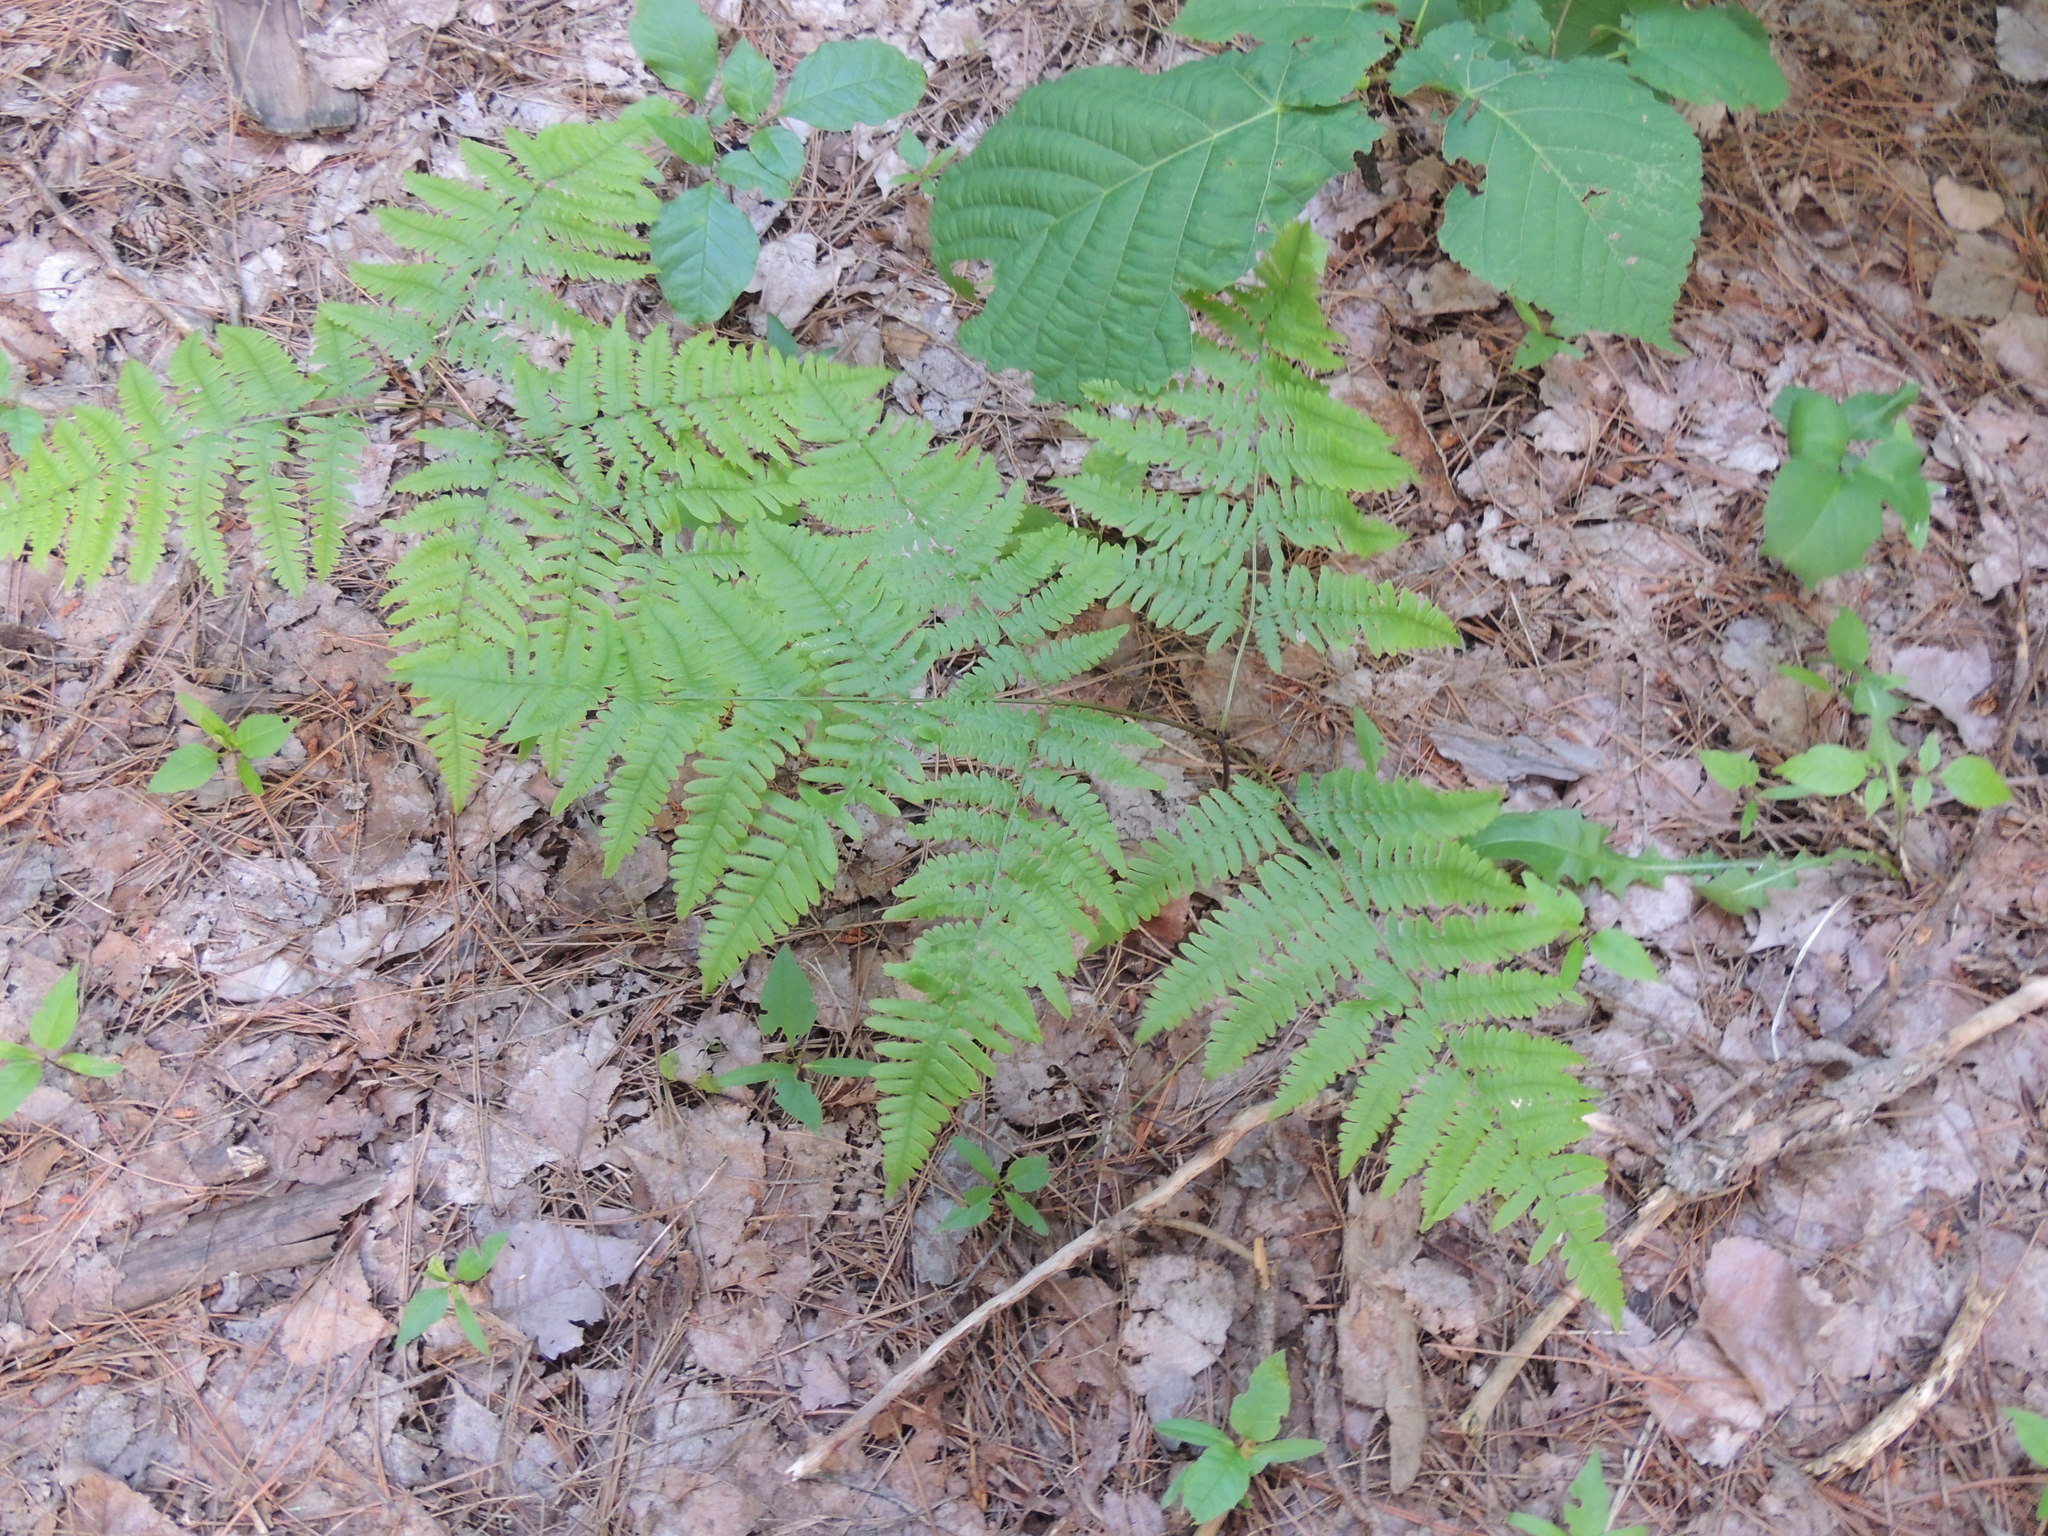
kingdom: Plantae
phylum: Tracheophyta
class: Polypodiopsida
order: Polypodiales
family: Dennstaedtiaceae
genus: Pteridium
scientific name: Pteridium aquilinum
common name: Bracken
